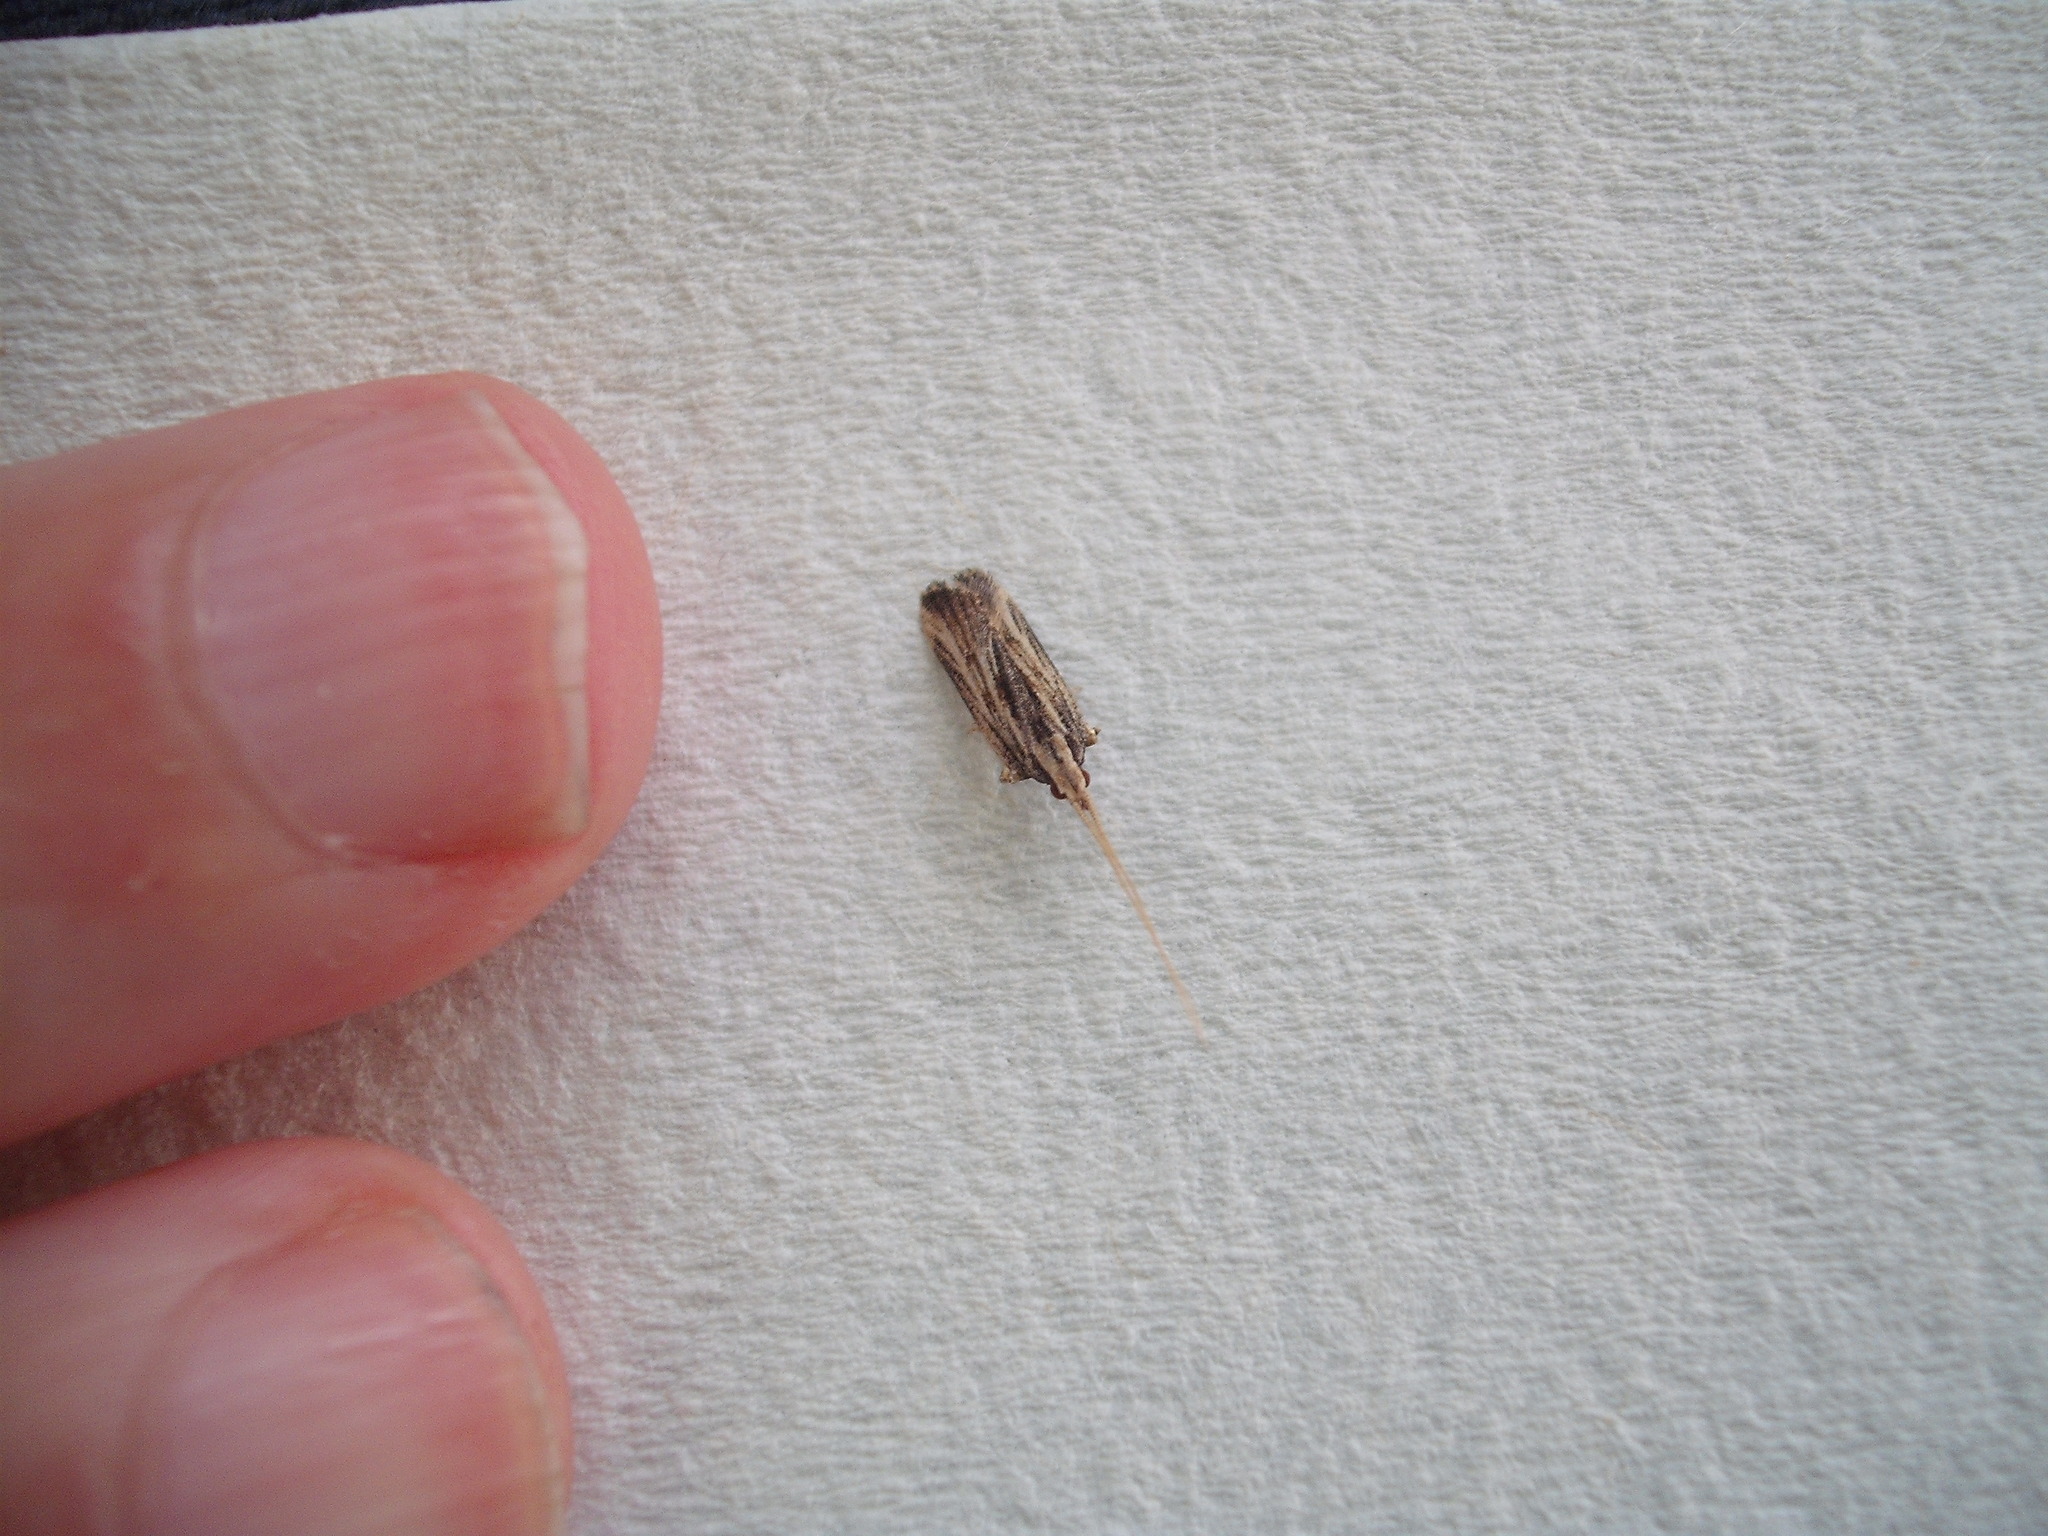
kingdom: Animalia
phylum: Arthropoda
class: Insecta
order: Lepidoptera
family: Lecithoceridae
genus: Sarisophora
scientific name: Sarisophora leucoscia
